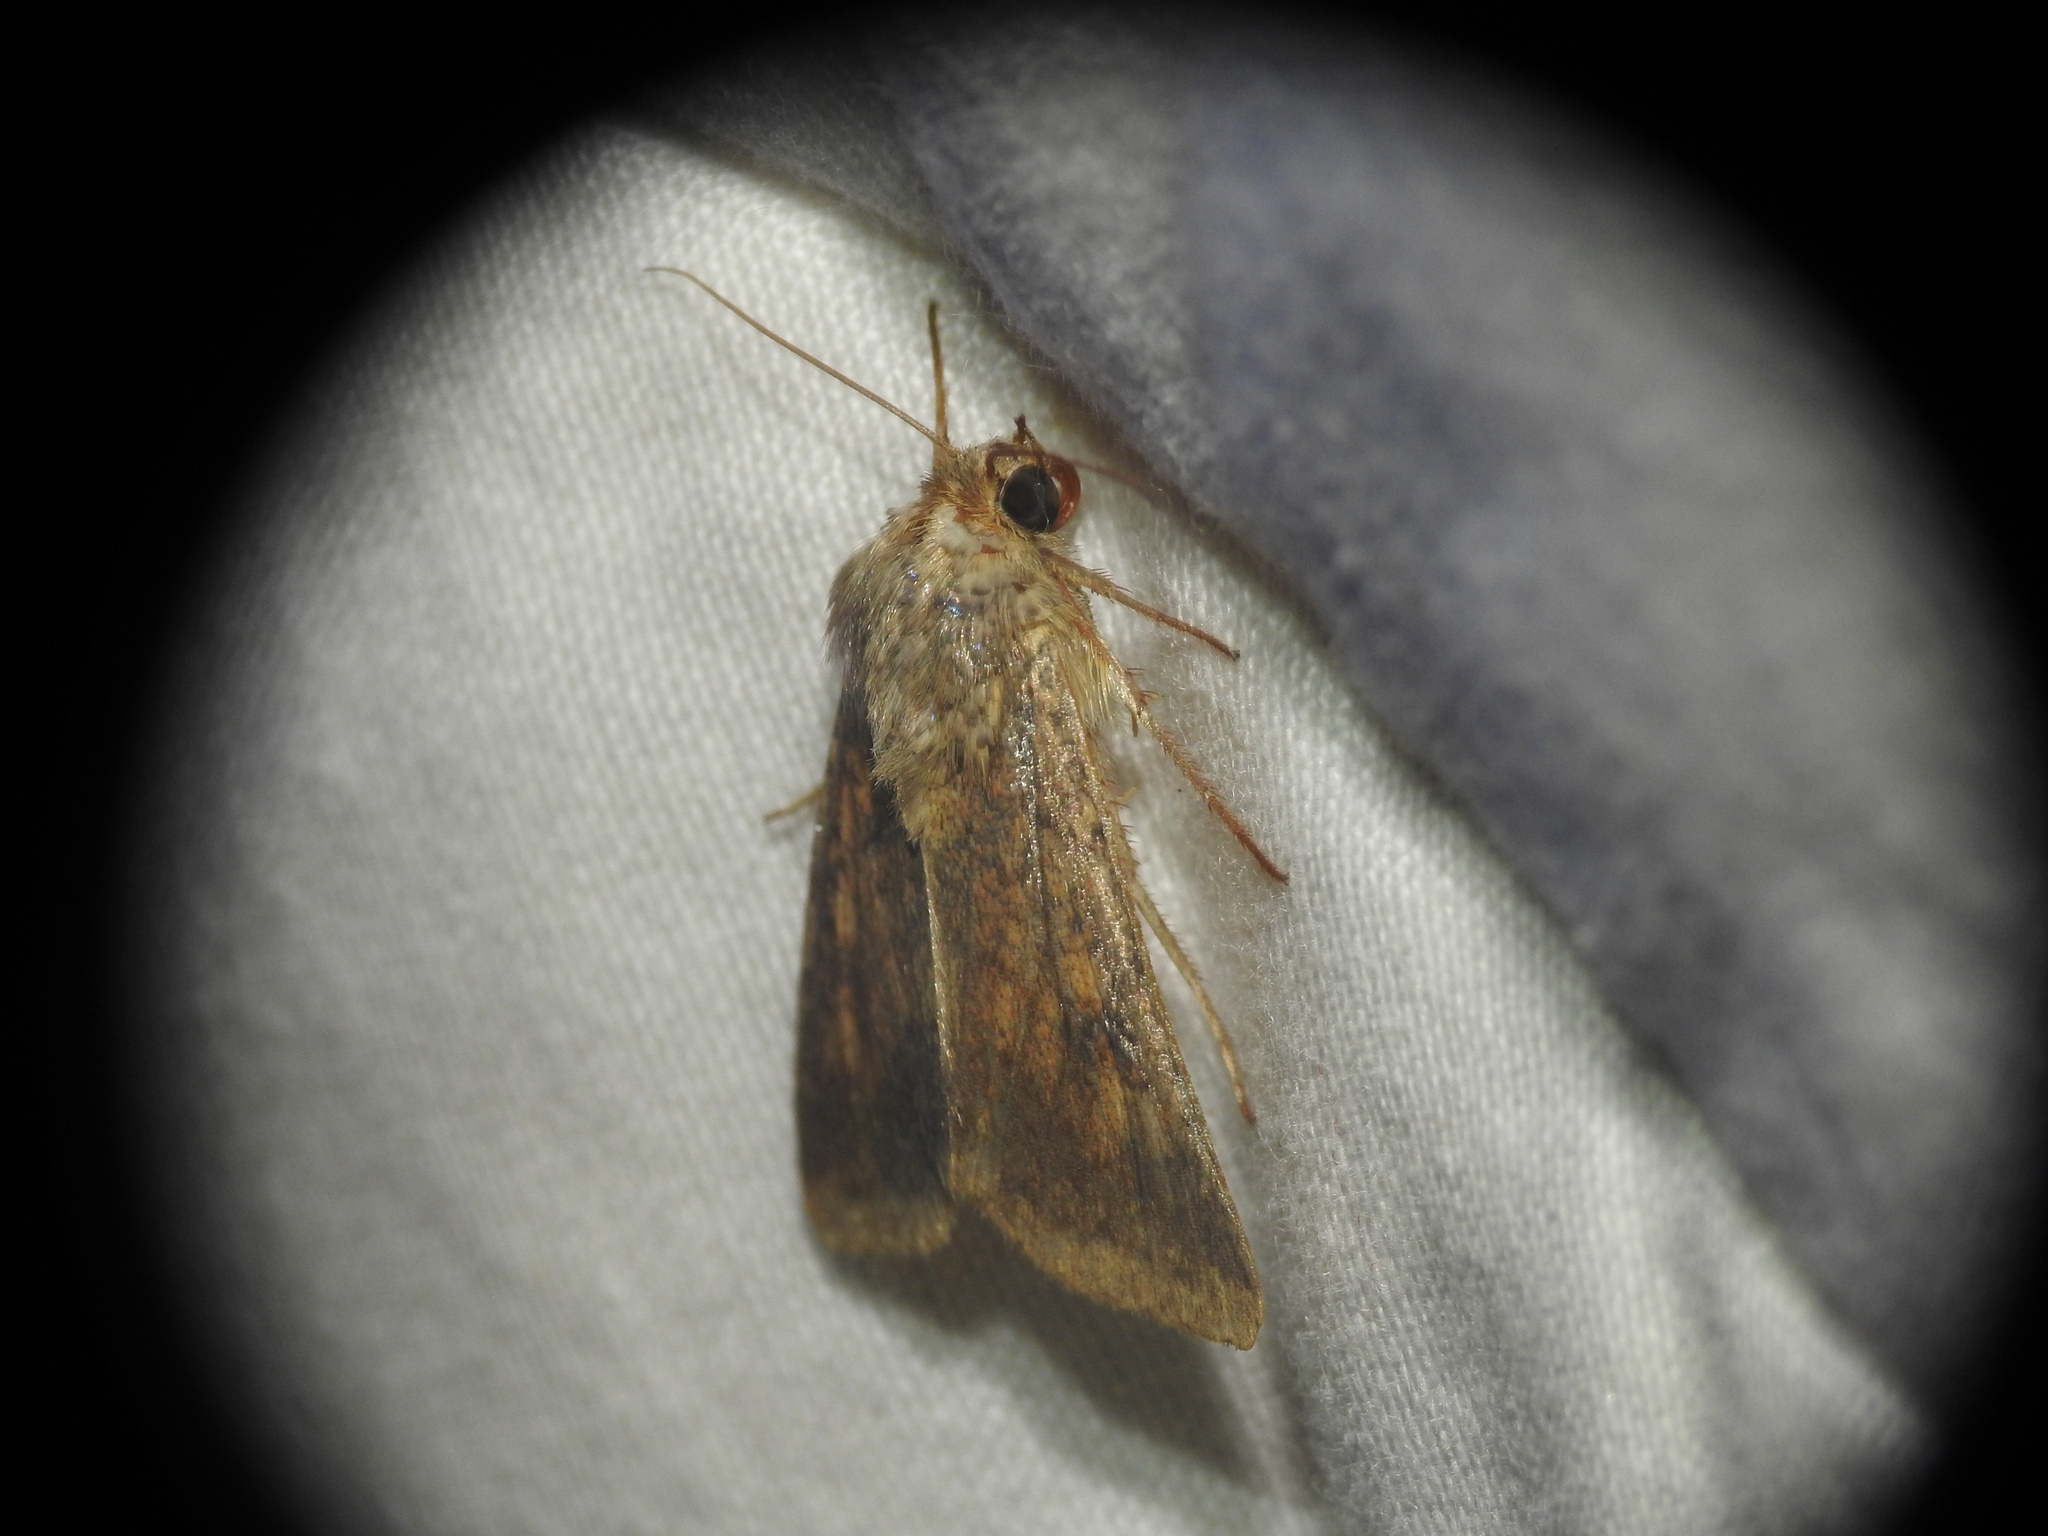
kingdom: Animalia
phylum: Arthropoda
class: Insecta
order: Lepidoptera
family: Noctuidae
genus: Helicoverpa
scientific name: Helicoverpa armigera
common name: Cotton bollworm
